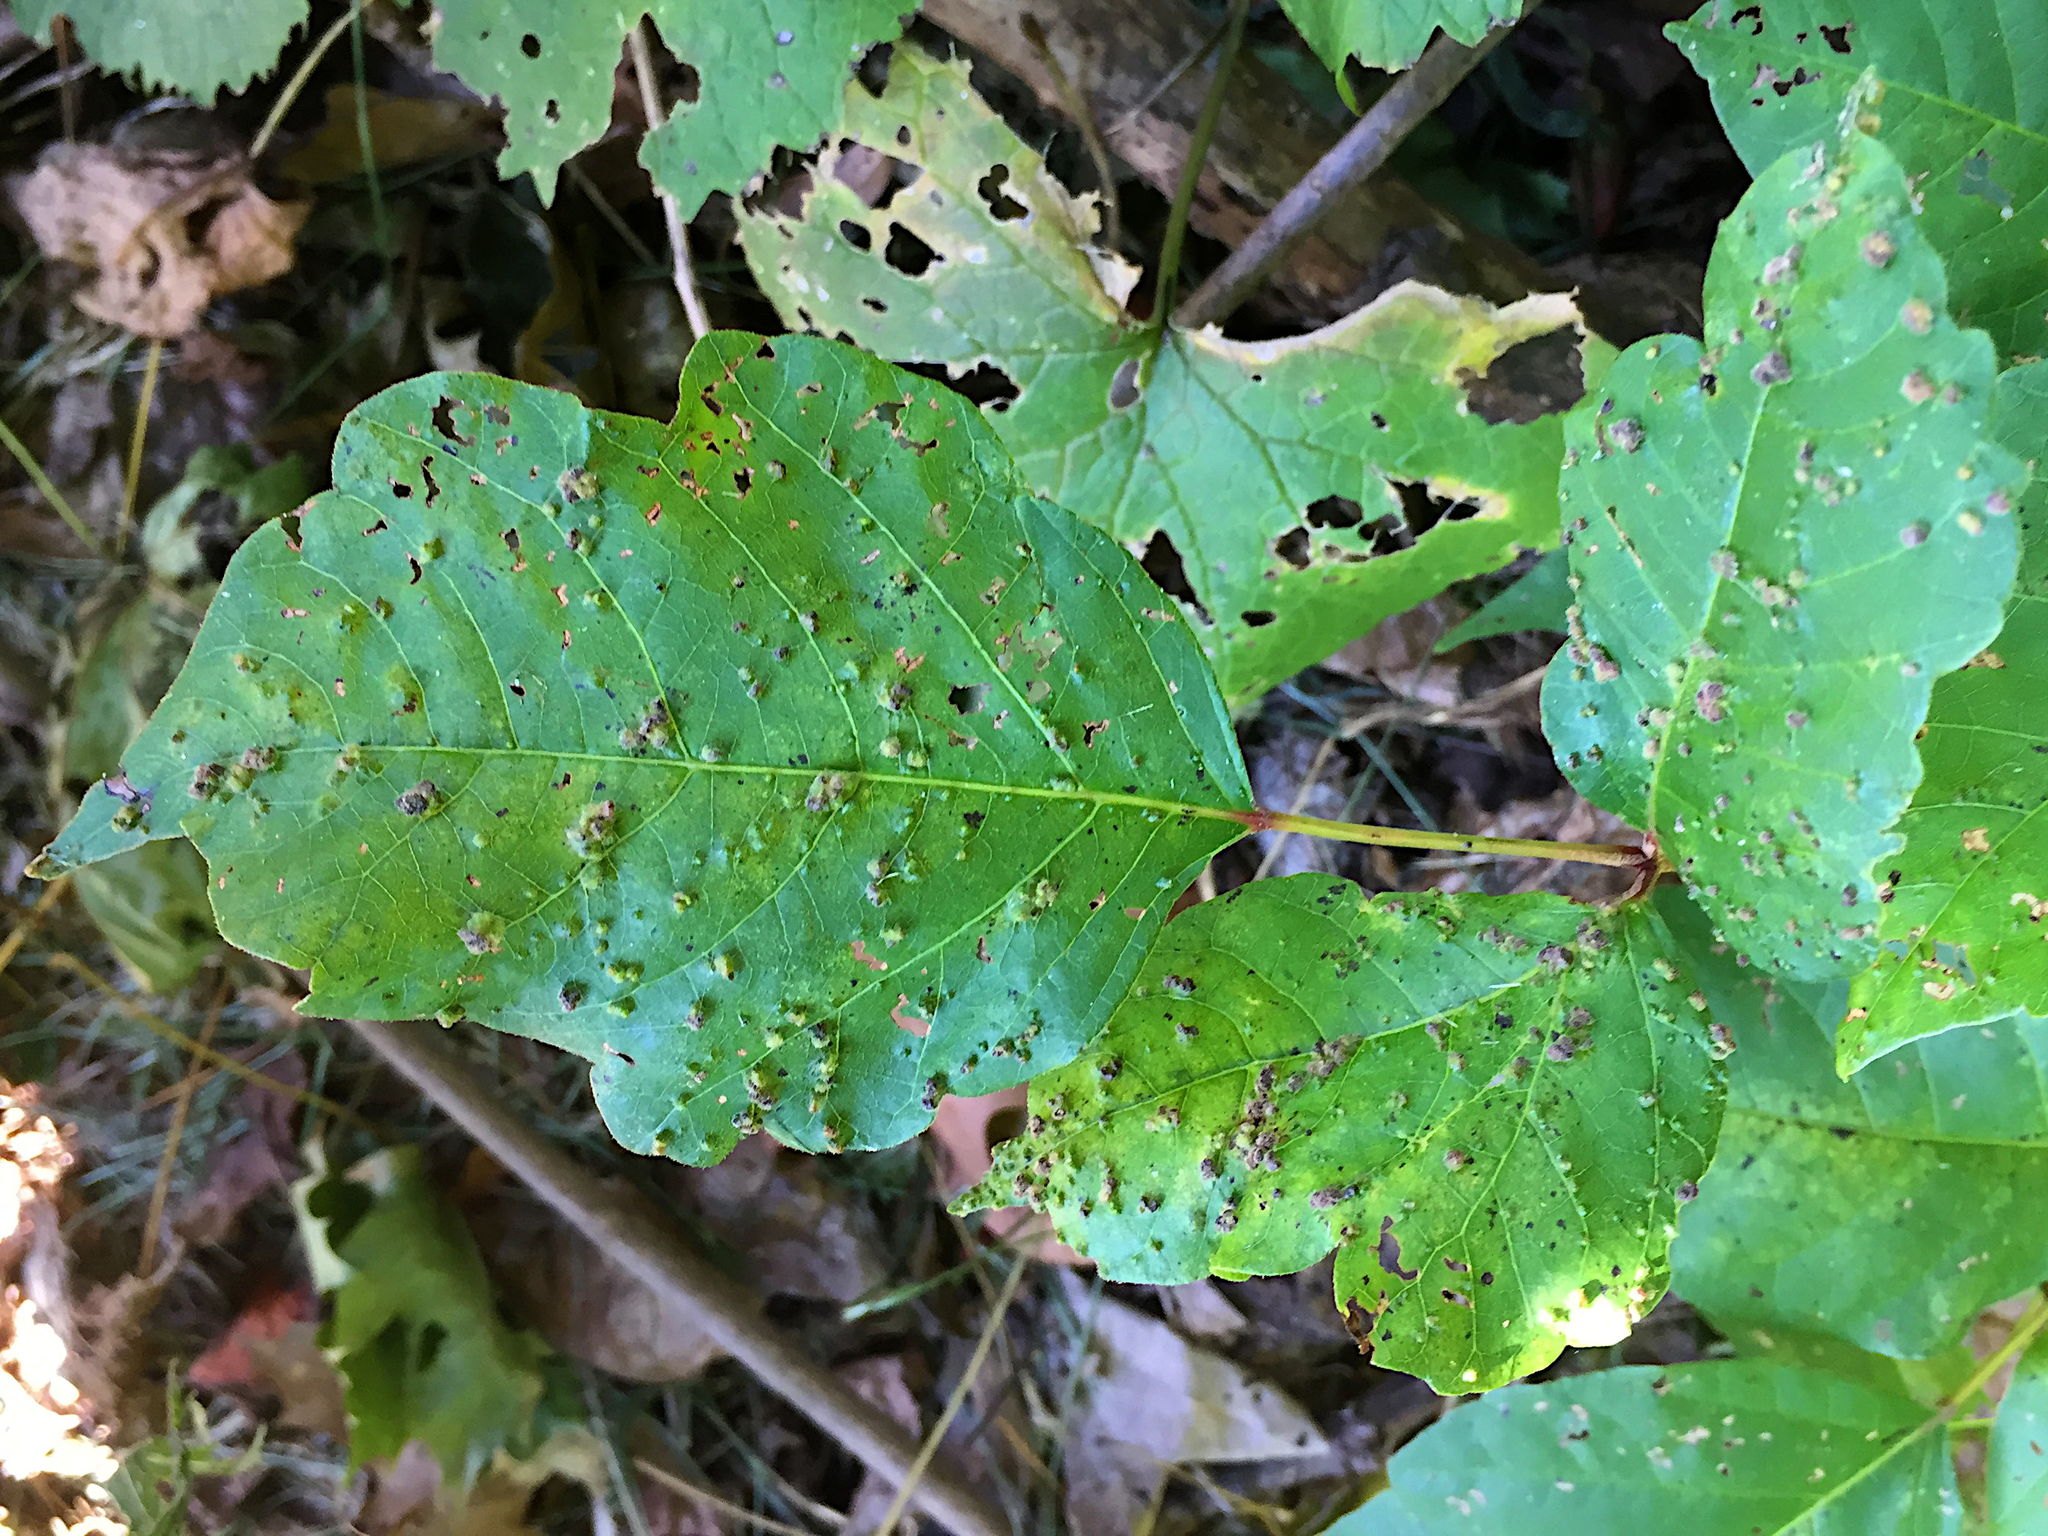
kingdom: Animalia
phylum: Arthropoda
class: Arachnida
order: Trombidiformes
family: Eriophyidae
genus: Aculops
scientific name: Aculops
